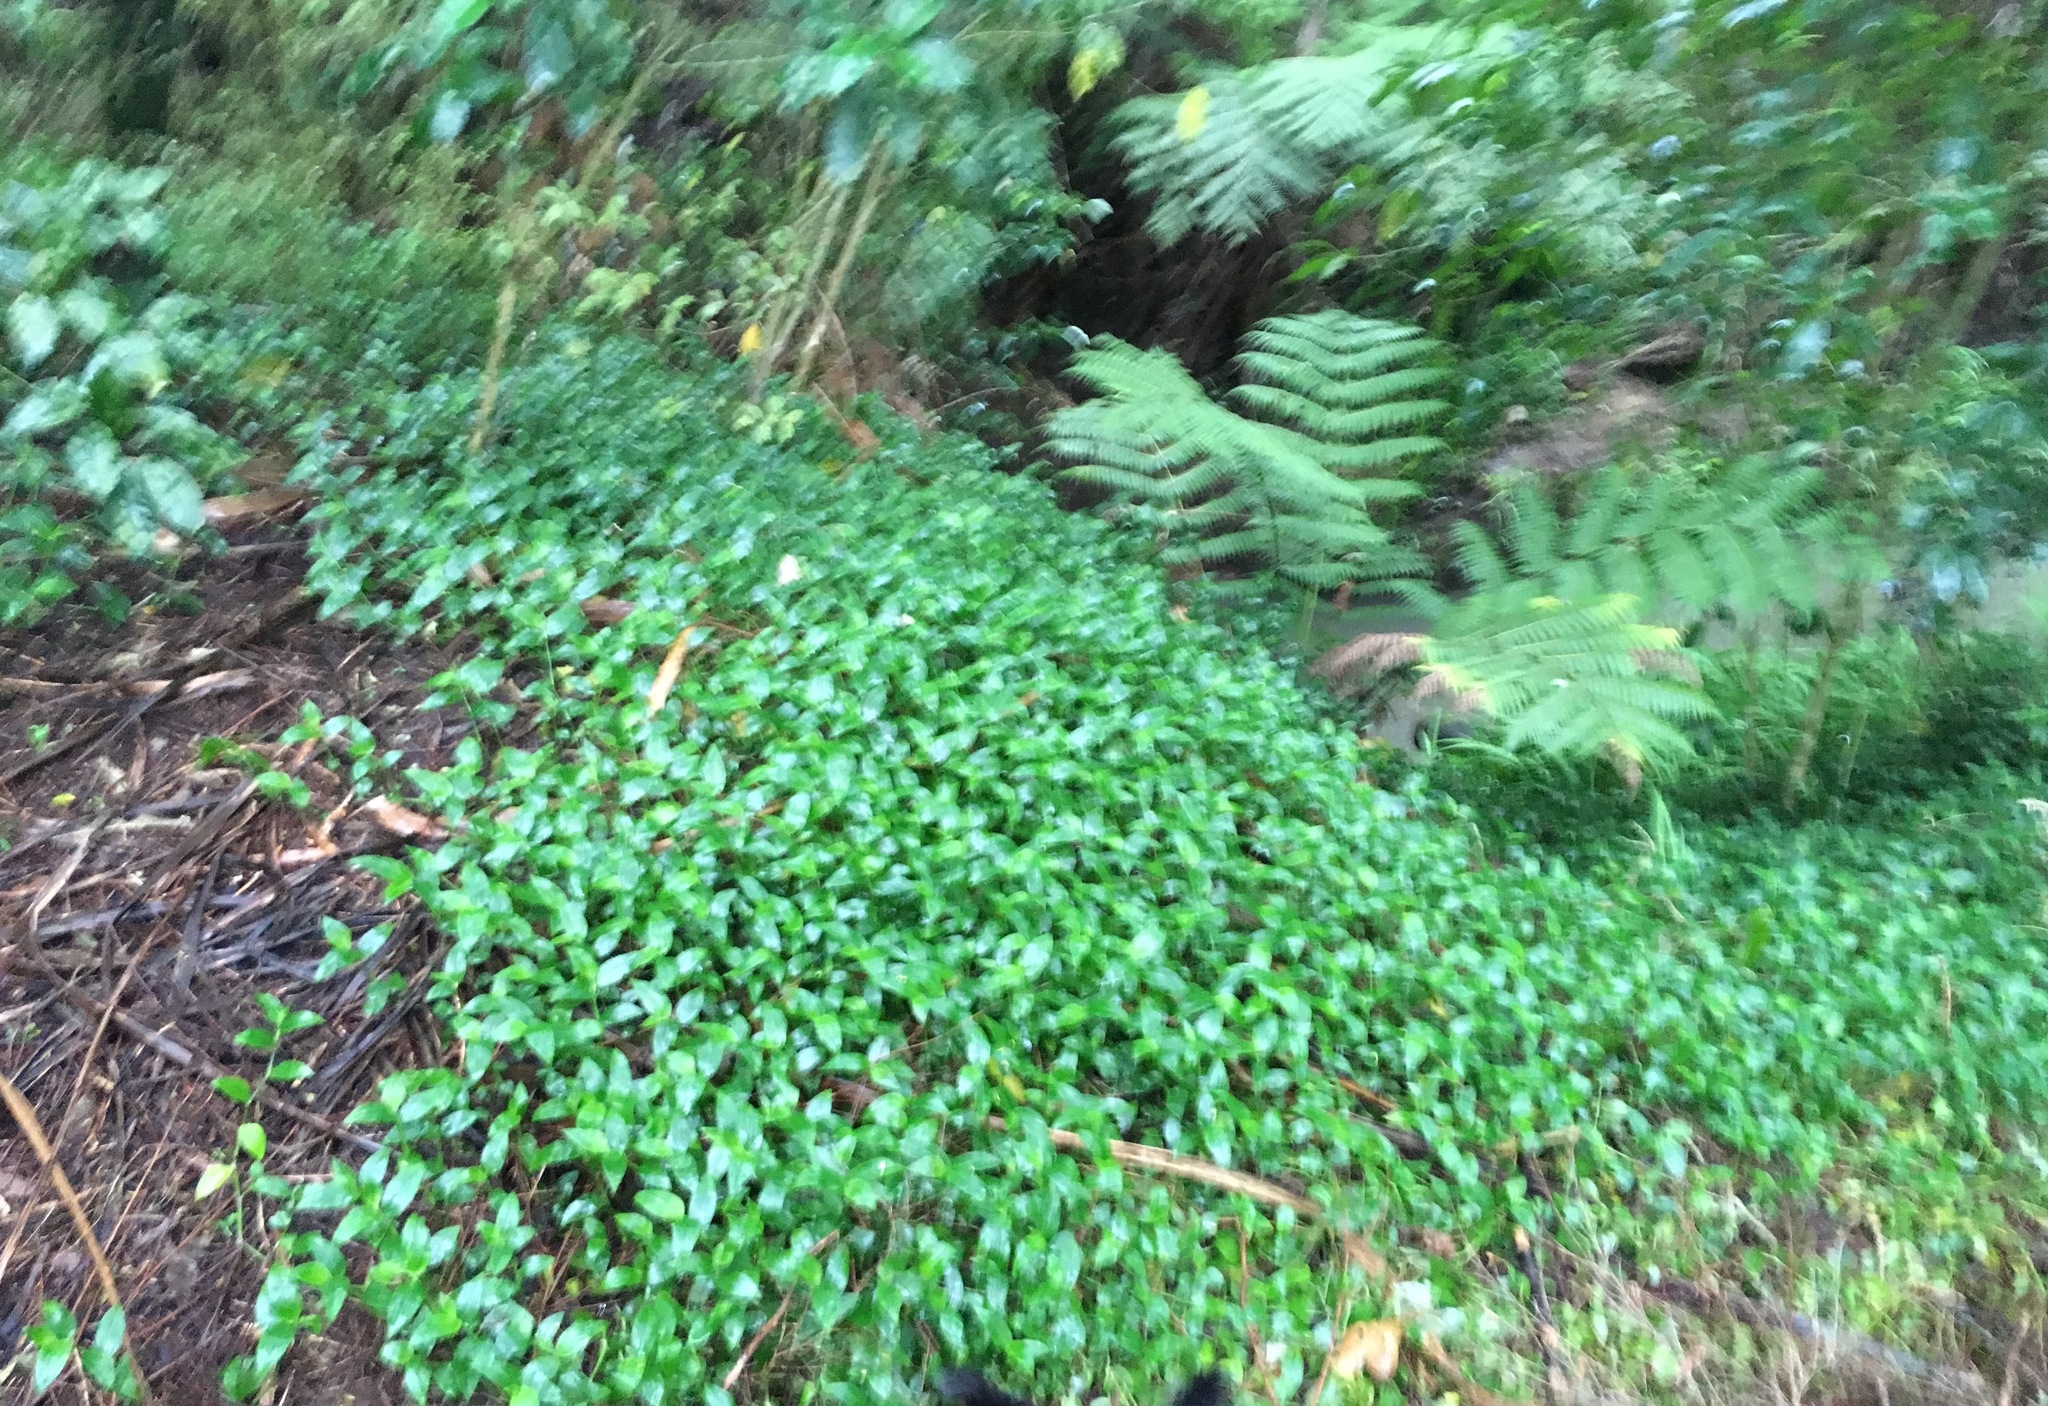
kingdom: Plantae
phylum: Tracheophyta
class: Liliopsida
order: Commelinales
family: Commelinaceae
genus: Tradescantia
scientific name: Tradescantia fluminensis
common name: Wandering-jew
